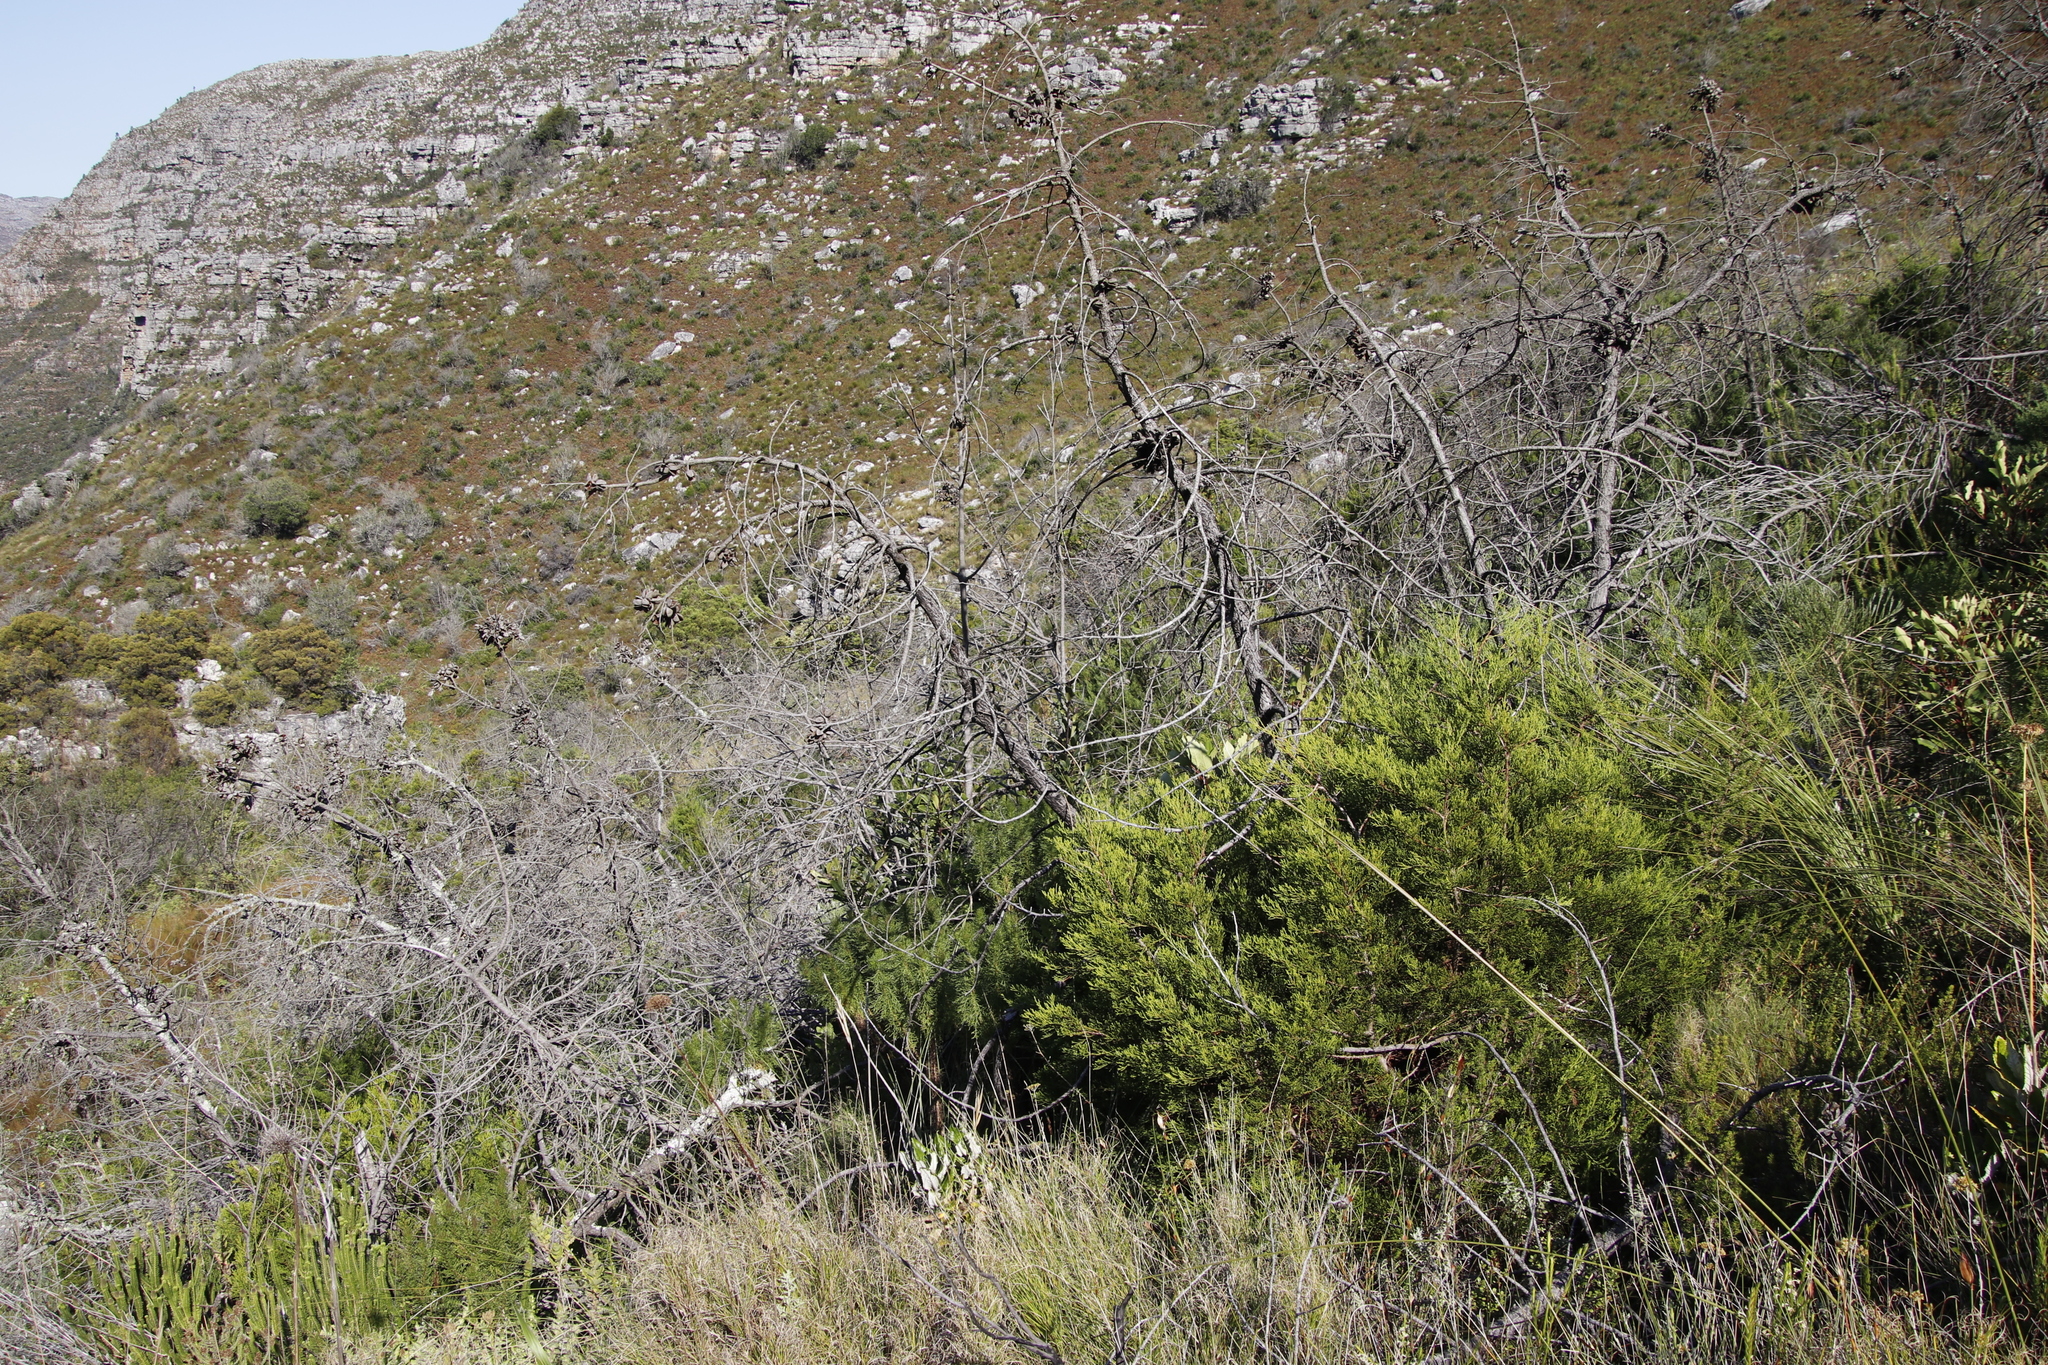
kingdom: Plantae
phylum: Tracheophyta
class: Pinopsida
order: Pinales
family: Cupressaceae
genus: Widdringtonia
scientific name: Widdringtonia nodiflora
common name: Cape cypress
